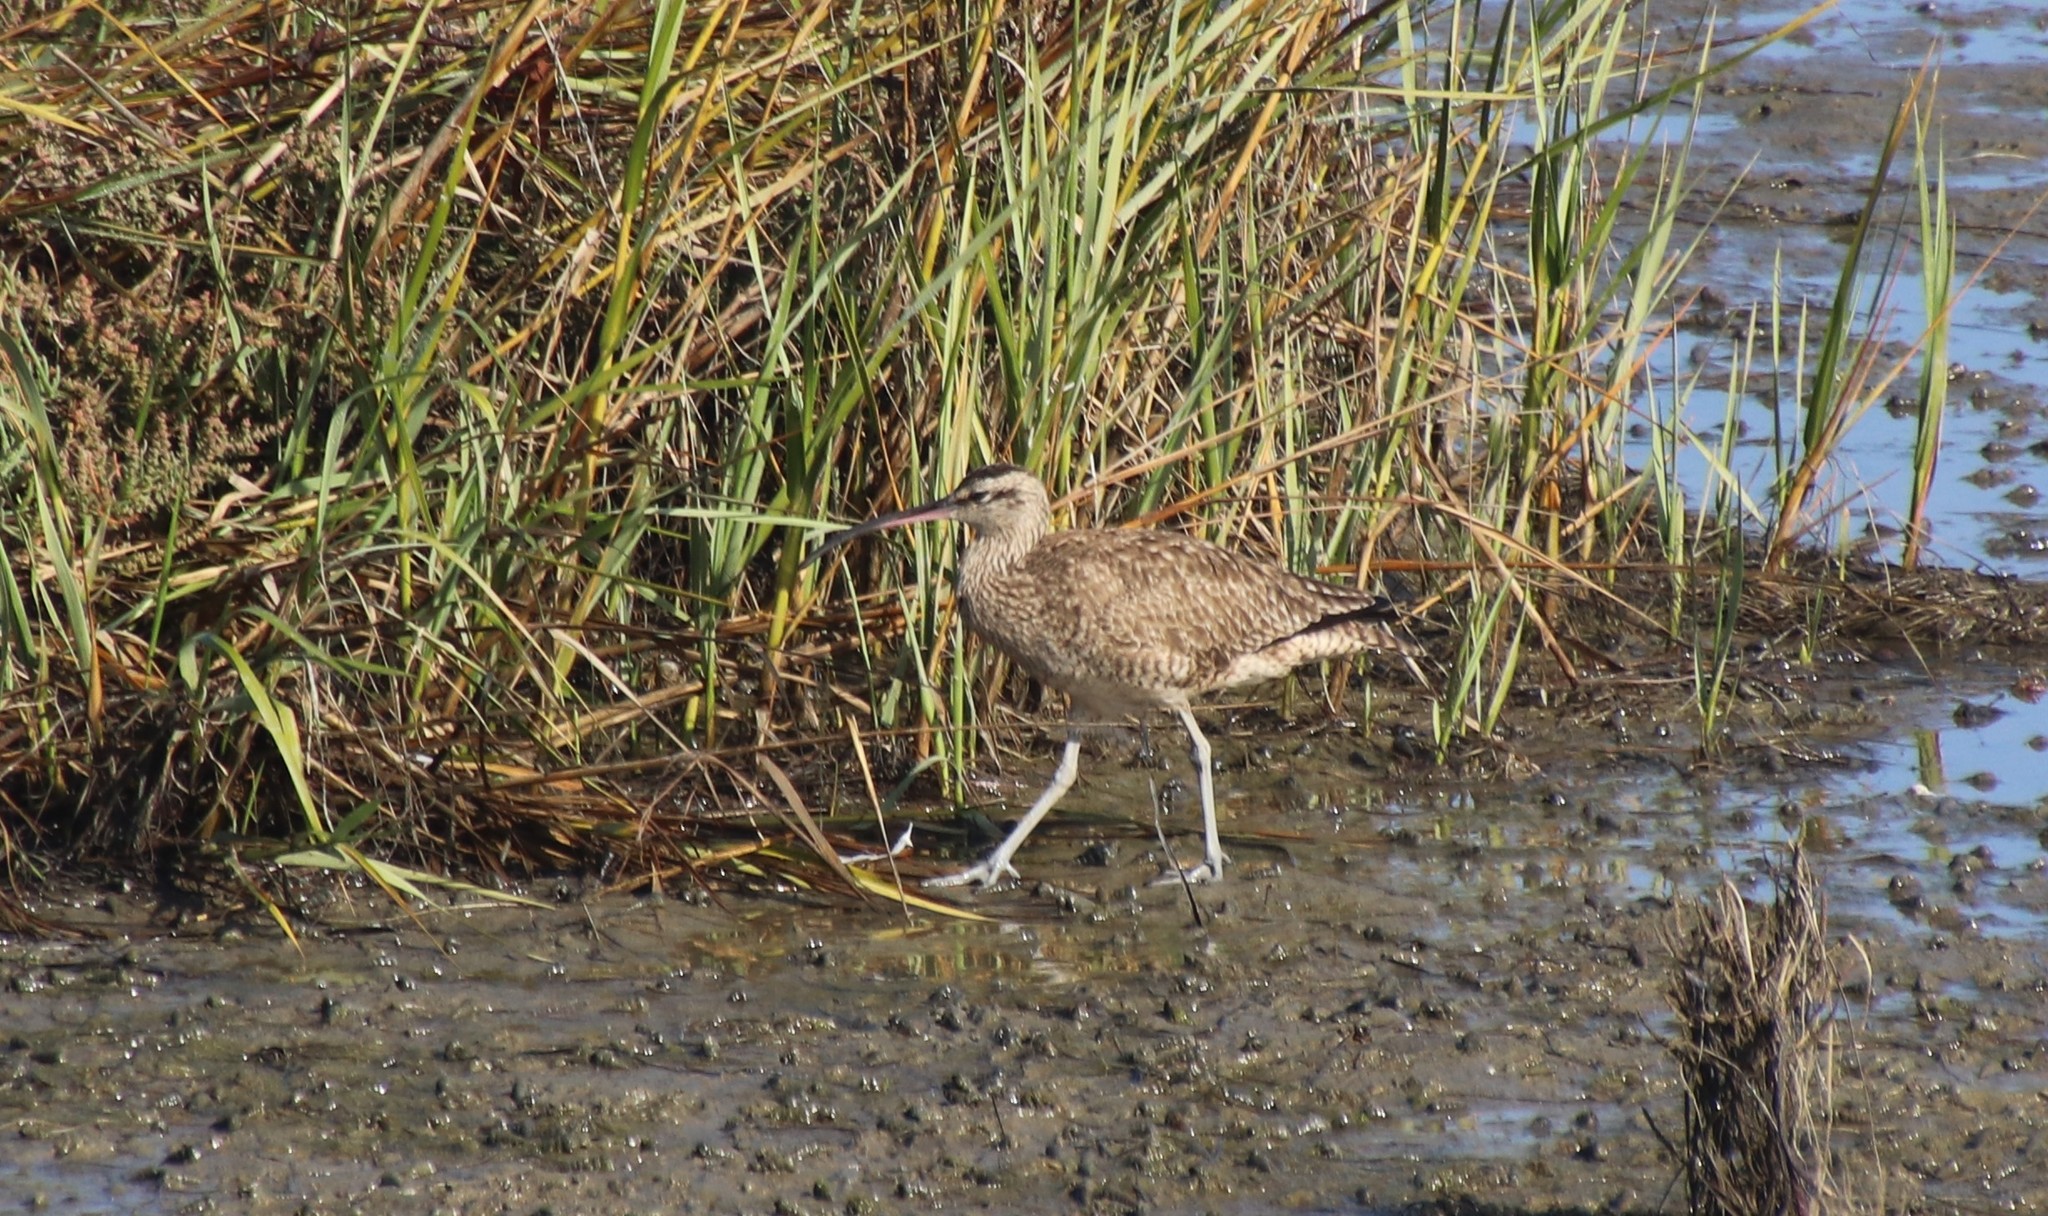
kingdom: Animalia
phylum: Chordata
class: Aves
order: Charadriiformes
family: Scolopacidae
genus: Numenius
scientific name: Numenius phaeopus
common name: Whimbrel
